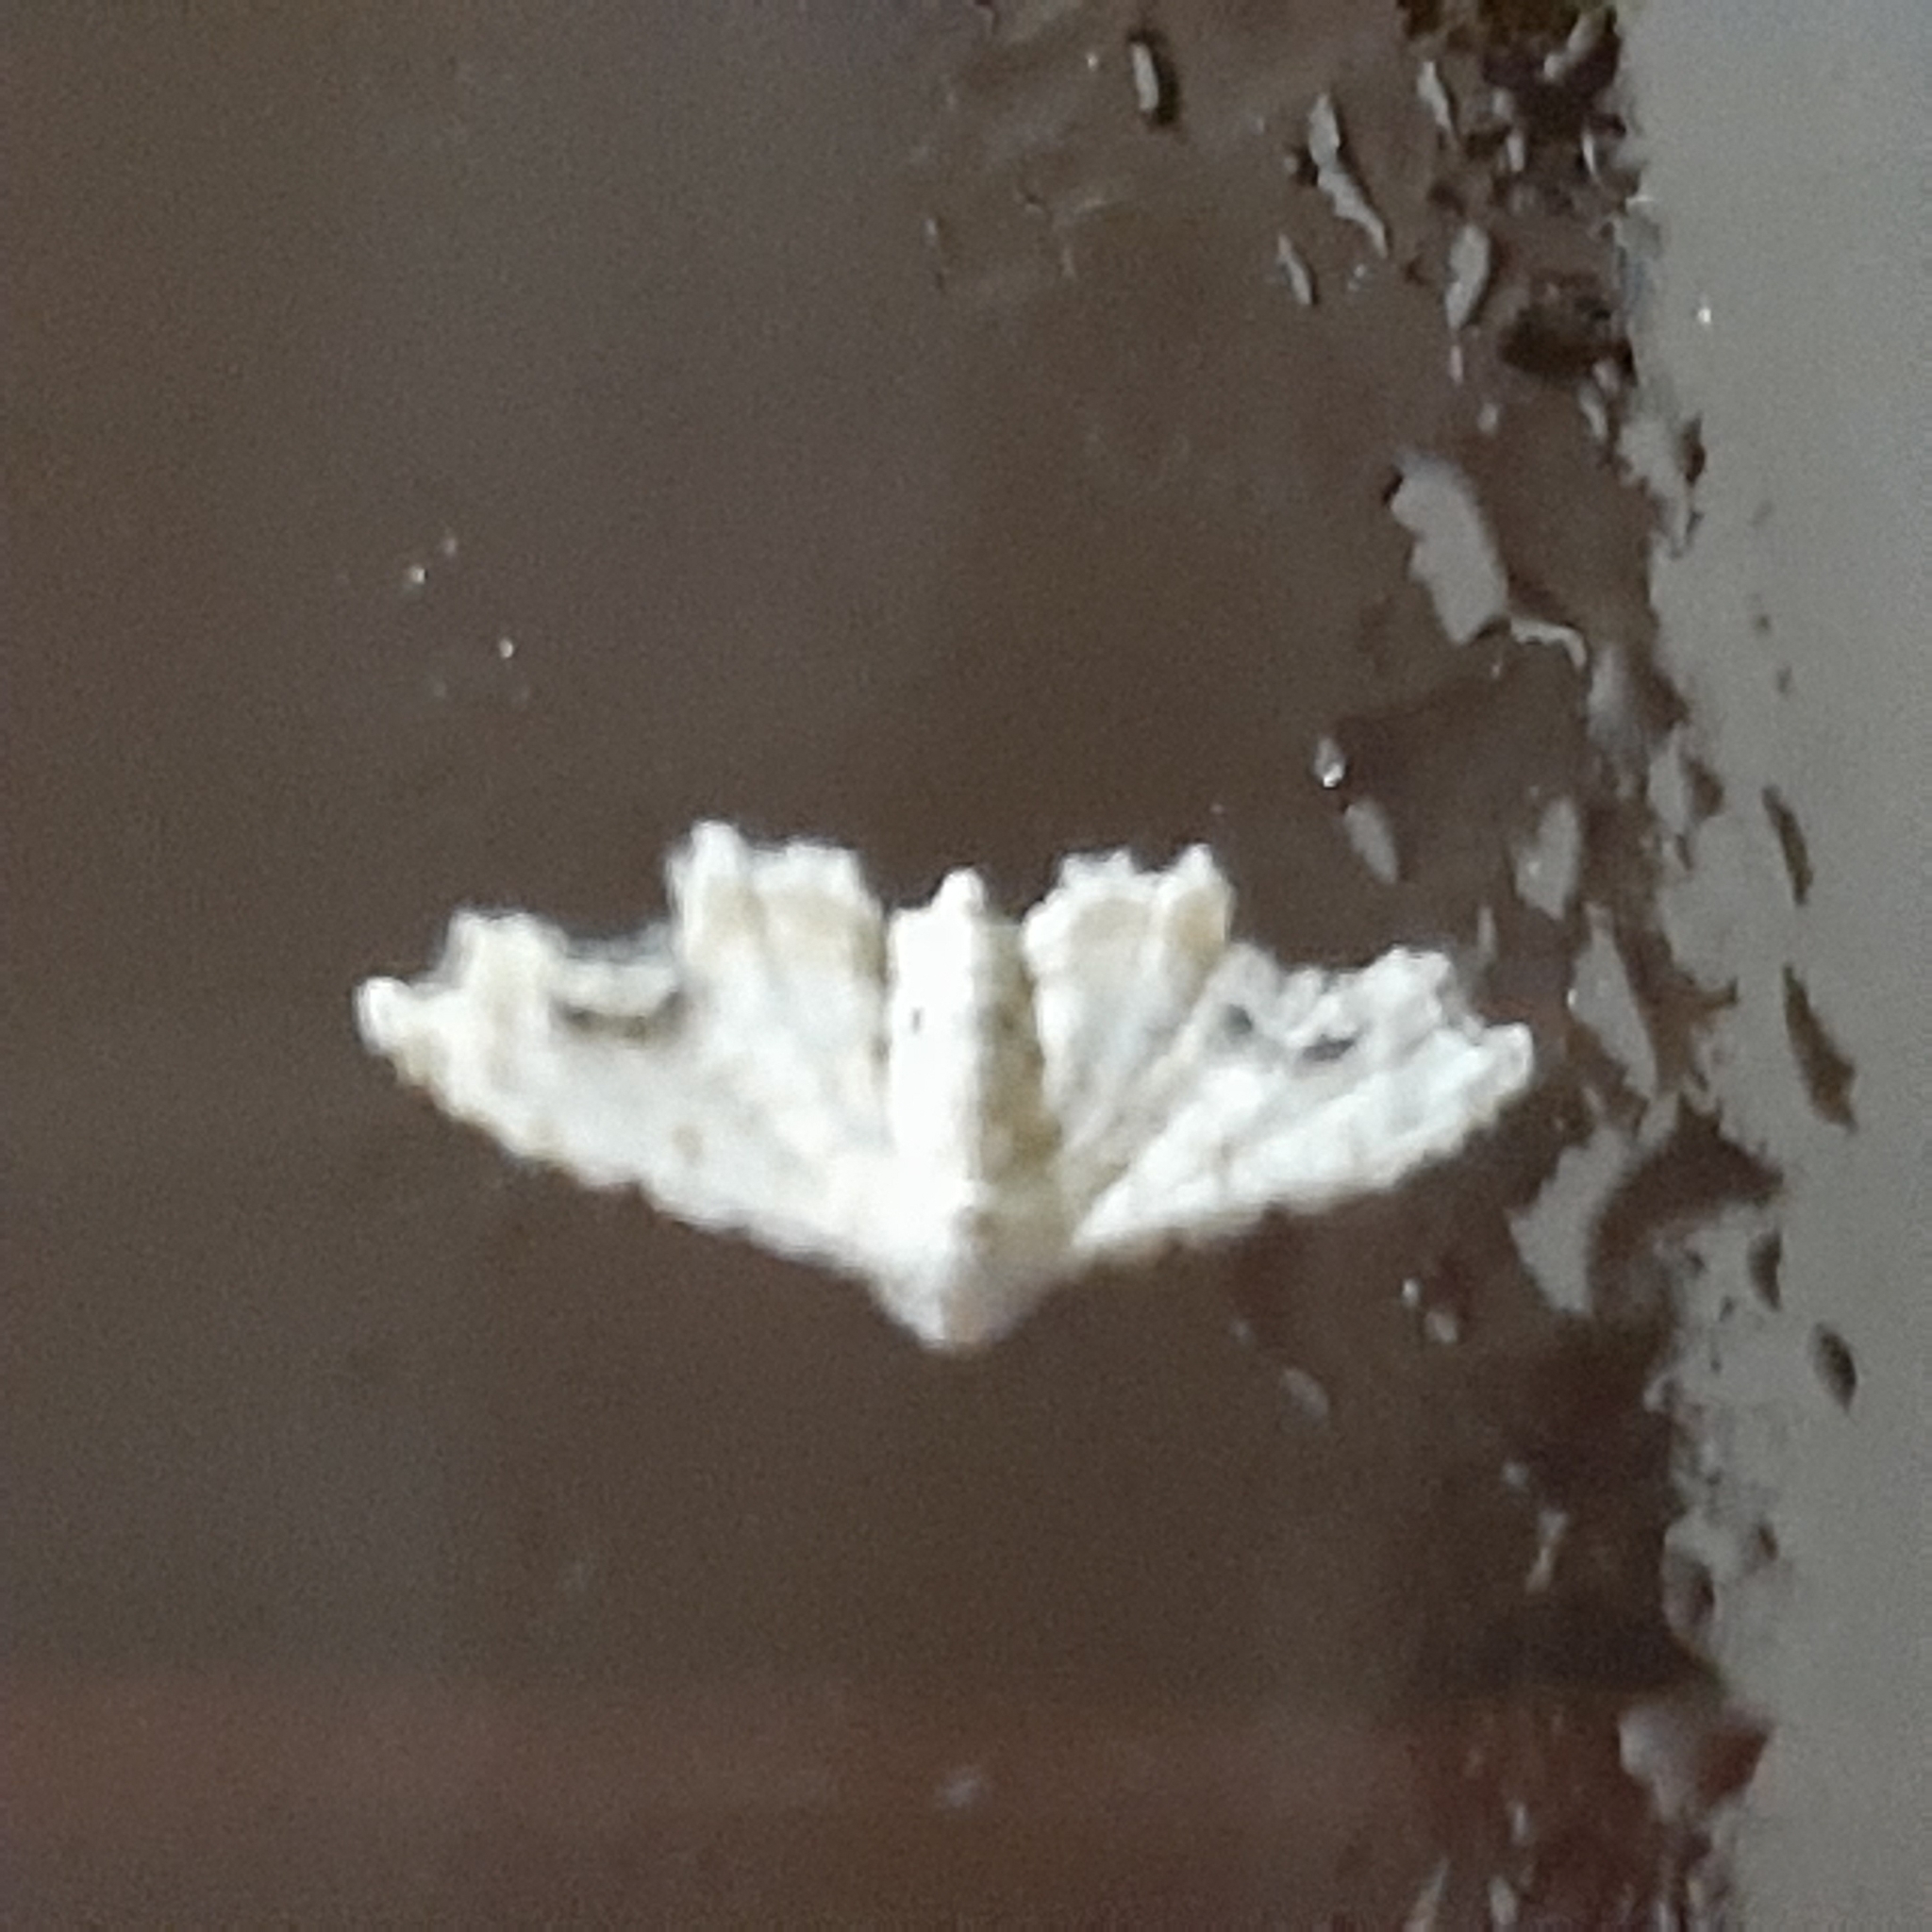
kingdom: Animalia
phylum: Arthropoda
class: Insecta
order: Lepidoptera
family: Erebidae
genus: Sigela
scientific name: Sigela vilhelmina
